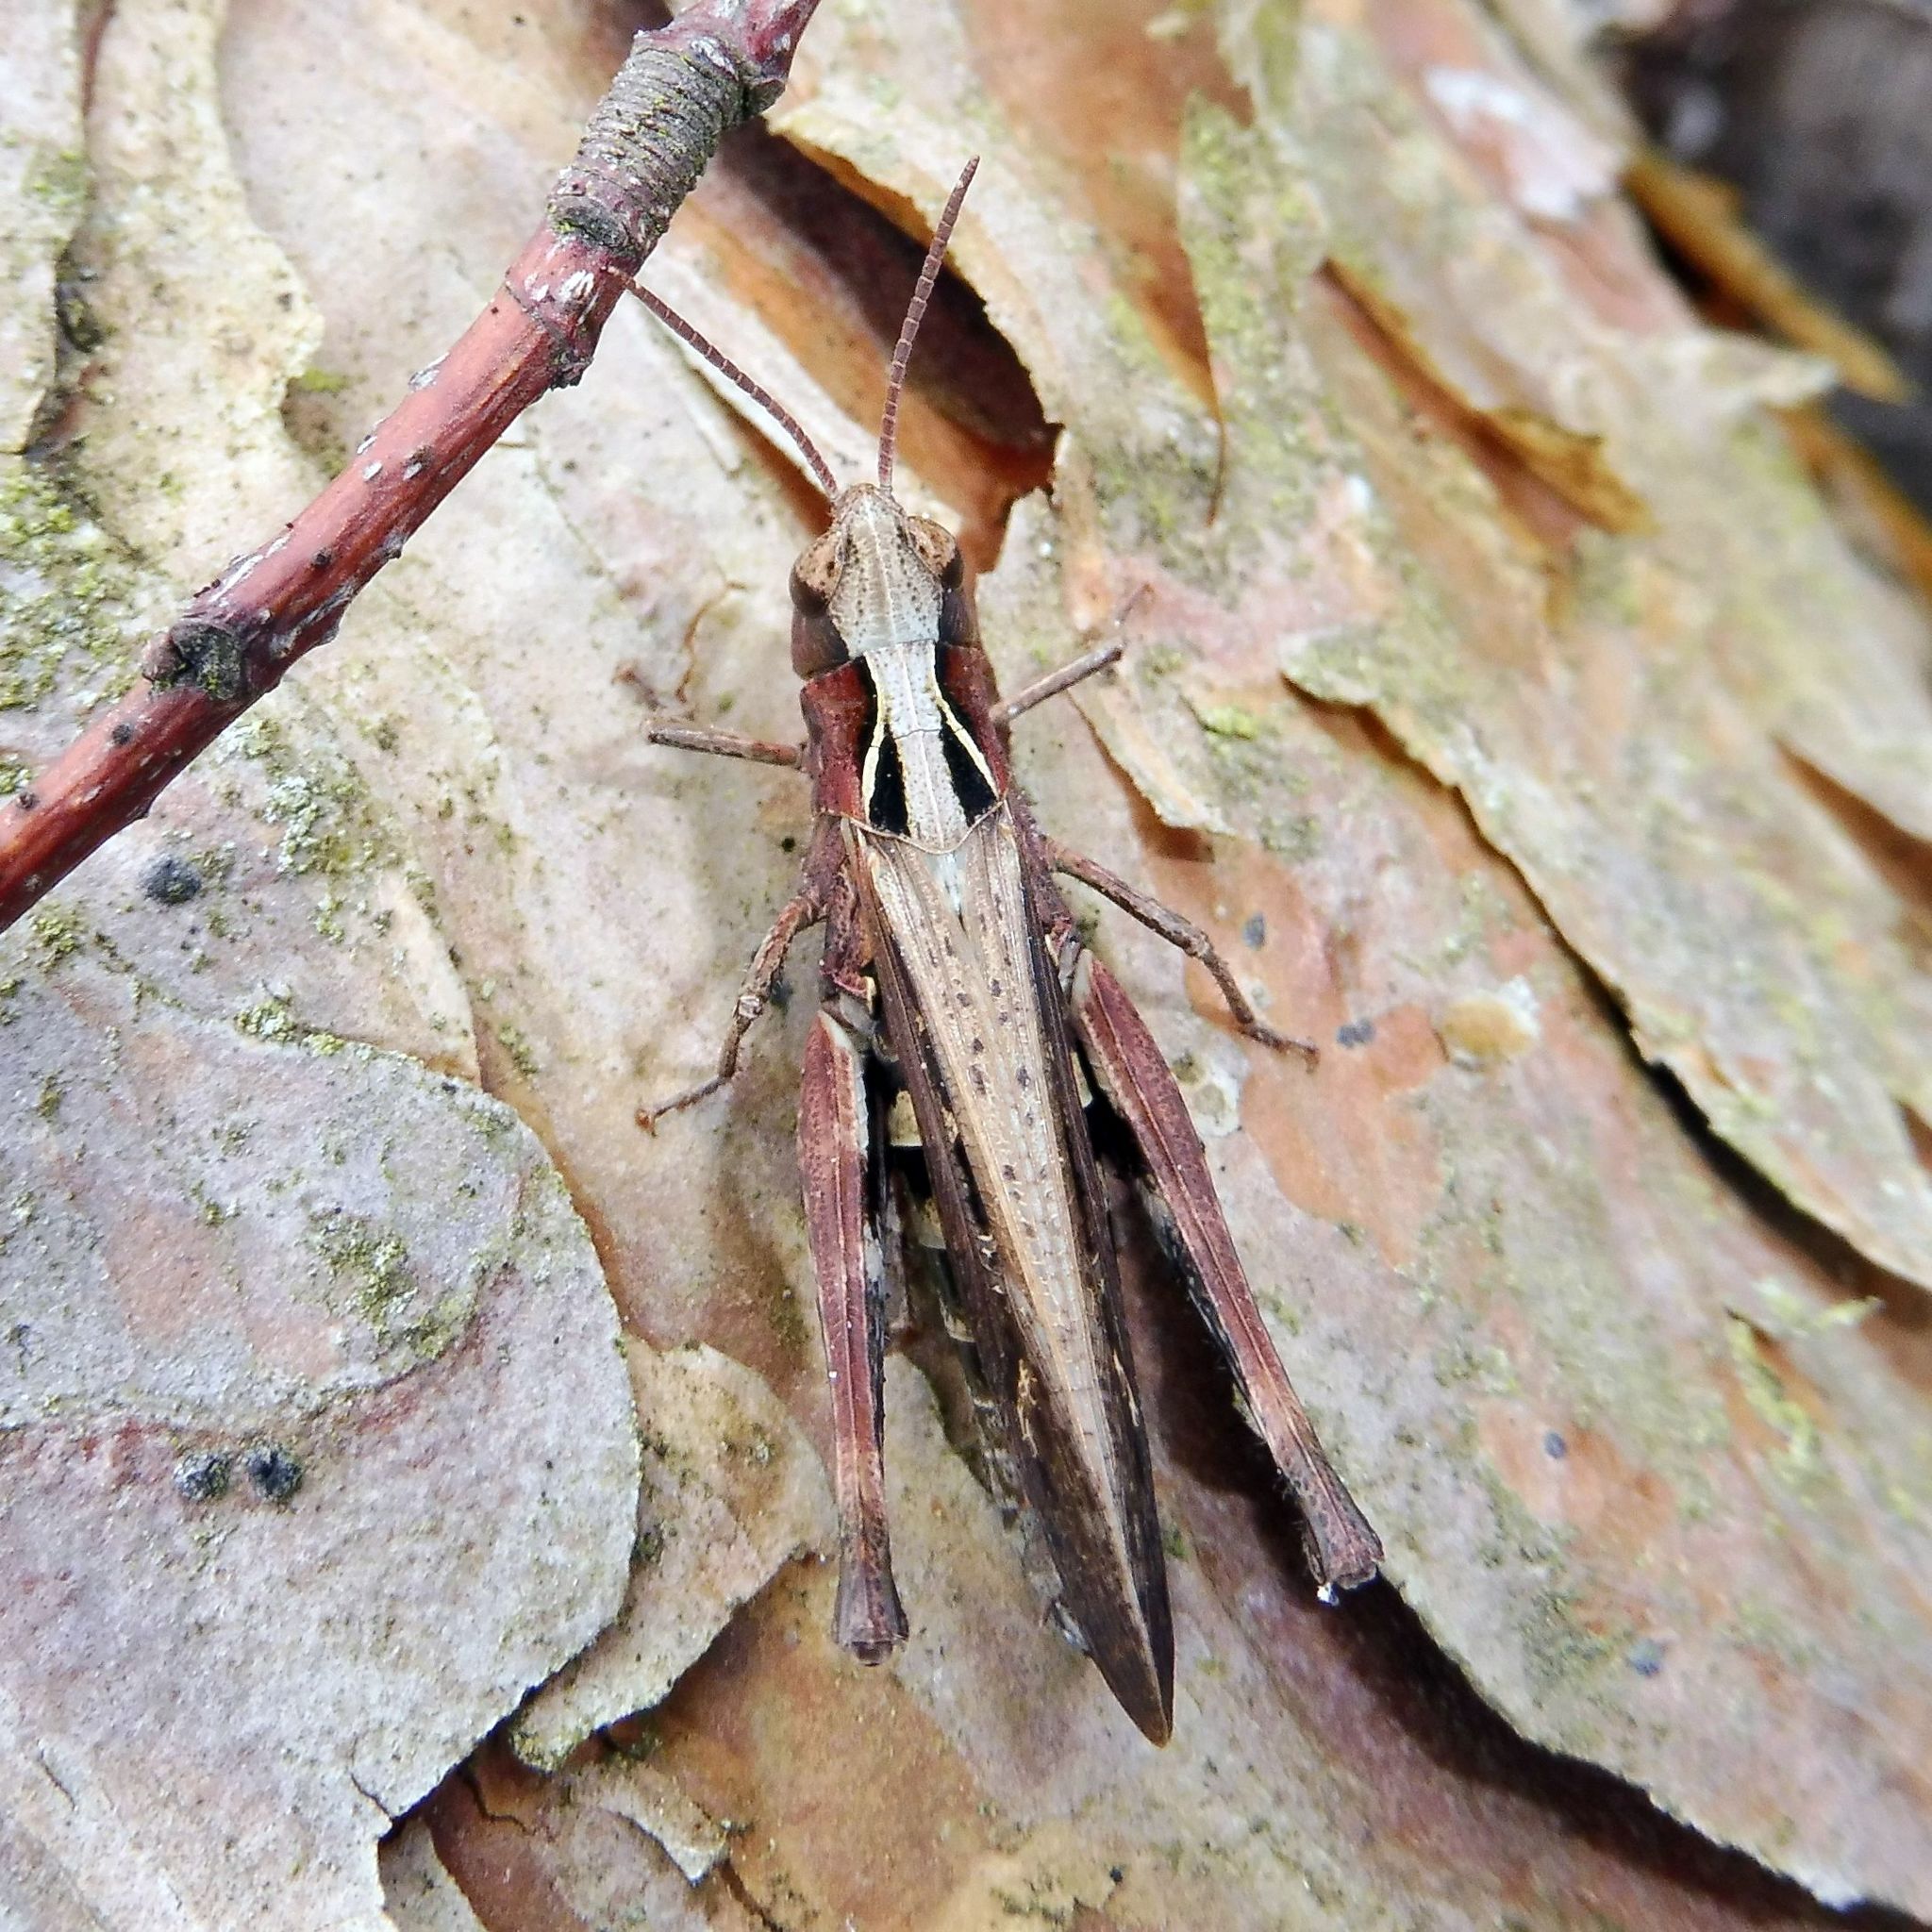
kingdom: Animalia
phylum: Arthropoda
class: Insecta
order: Orthoptera
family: Acrididae
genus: Omocestus
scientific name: Omocestus rufipes
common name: Woodland grasshopper
